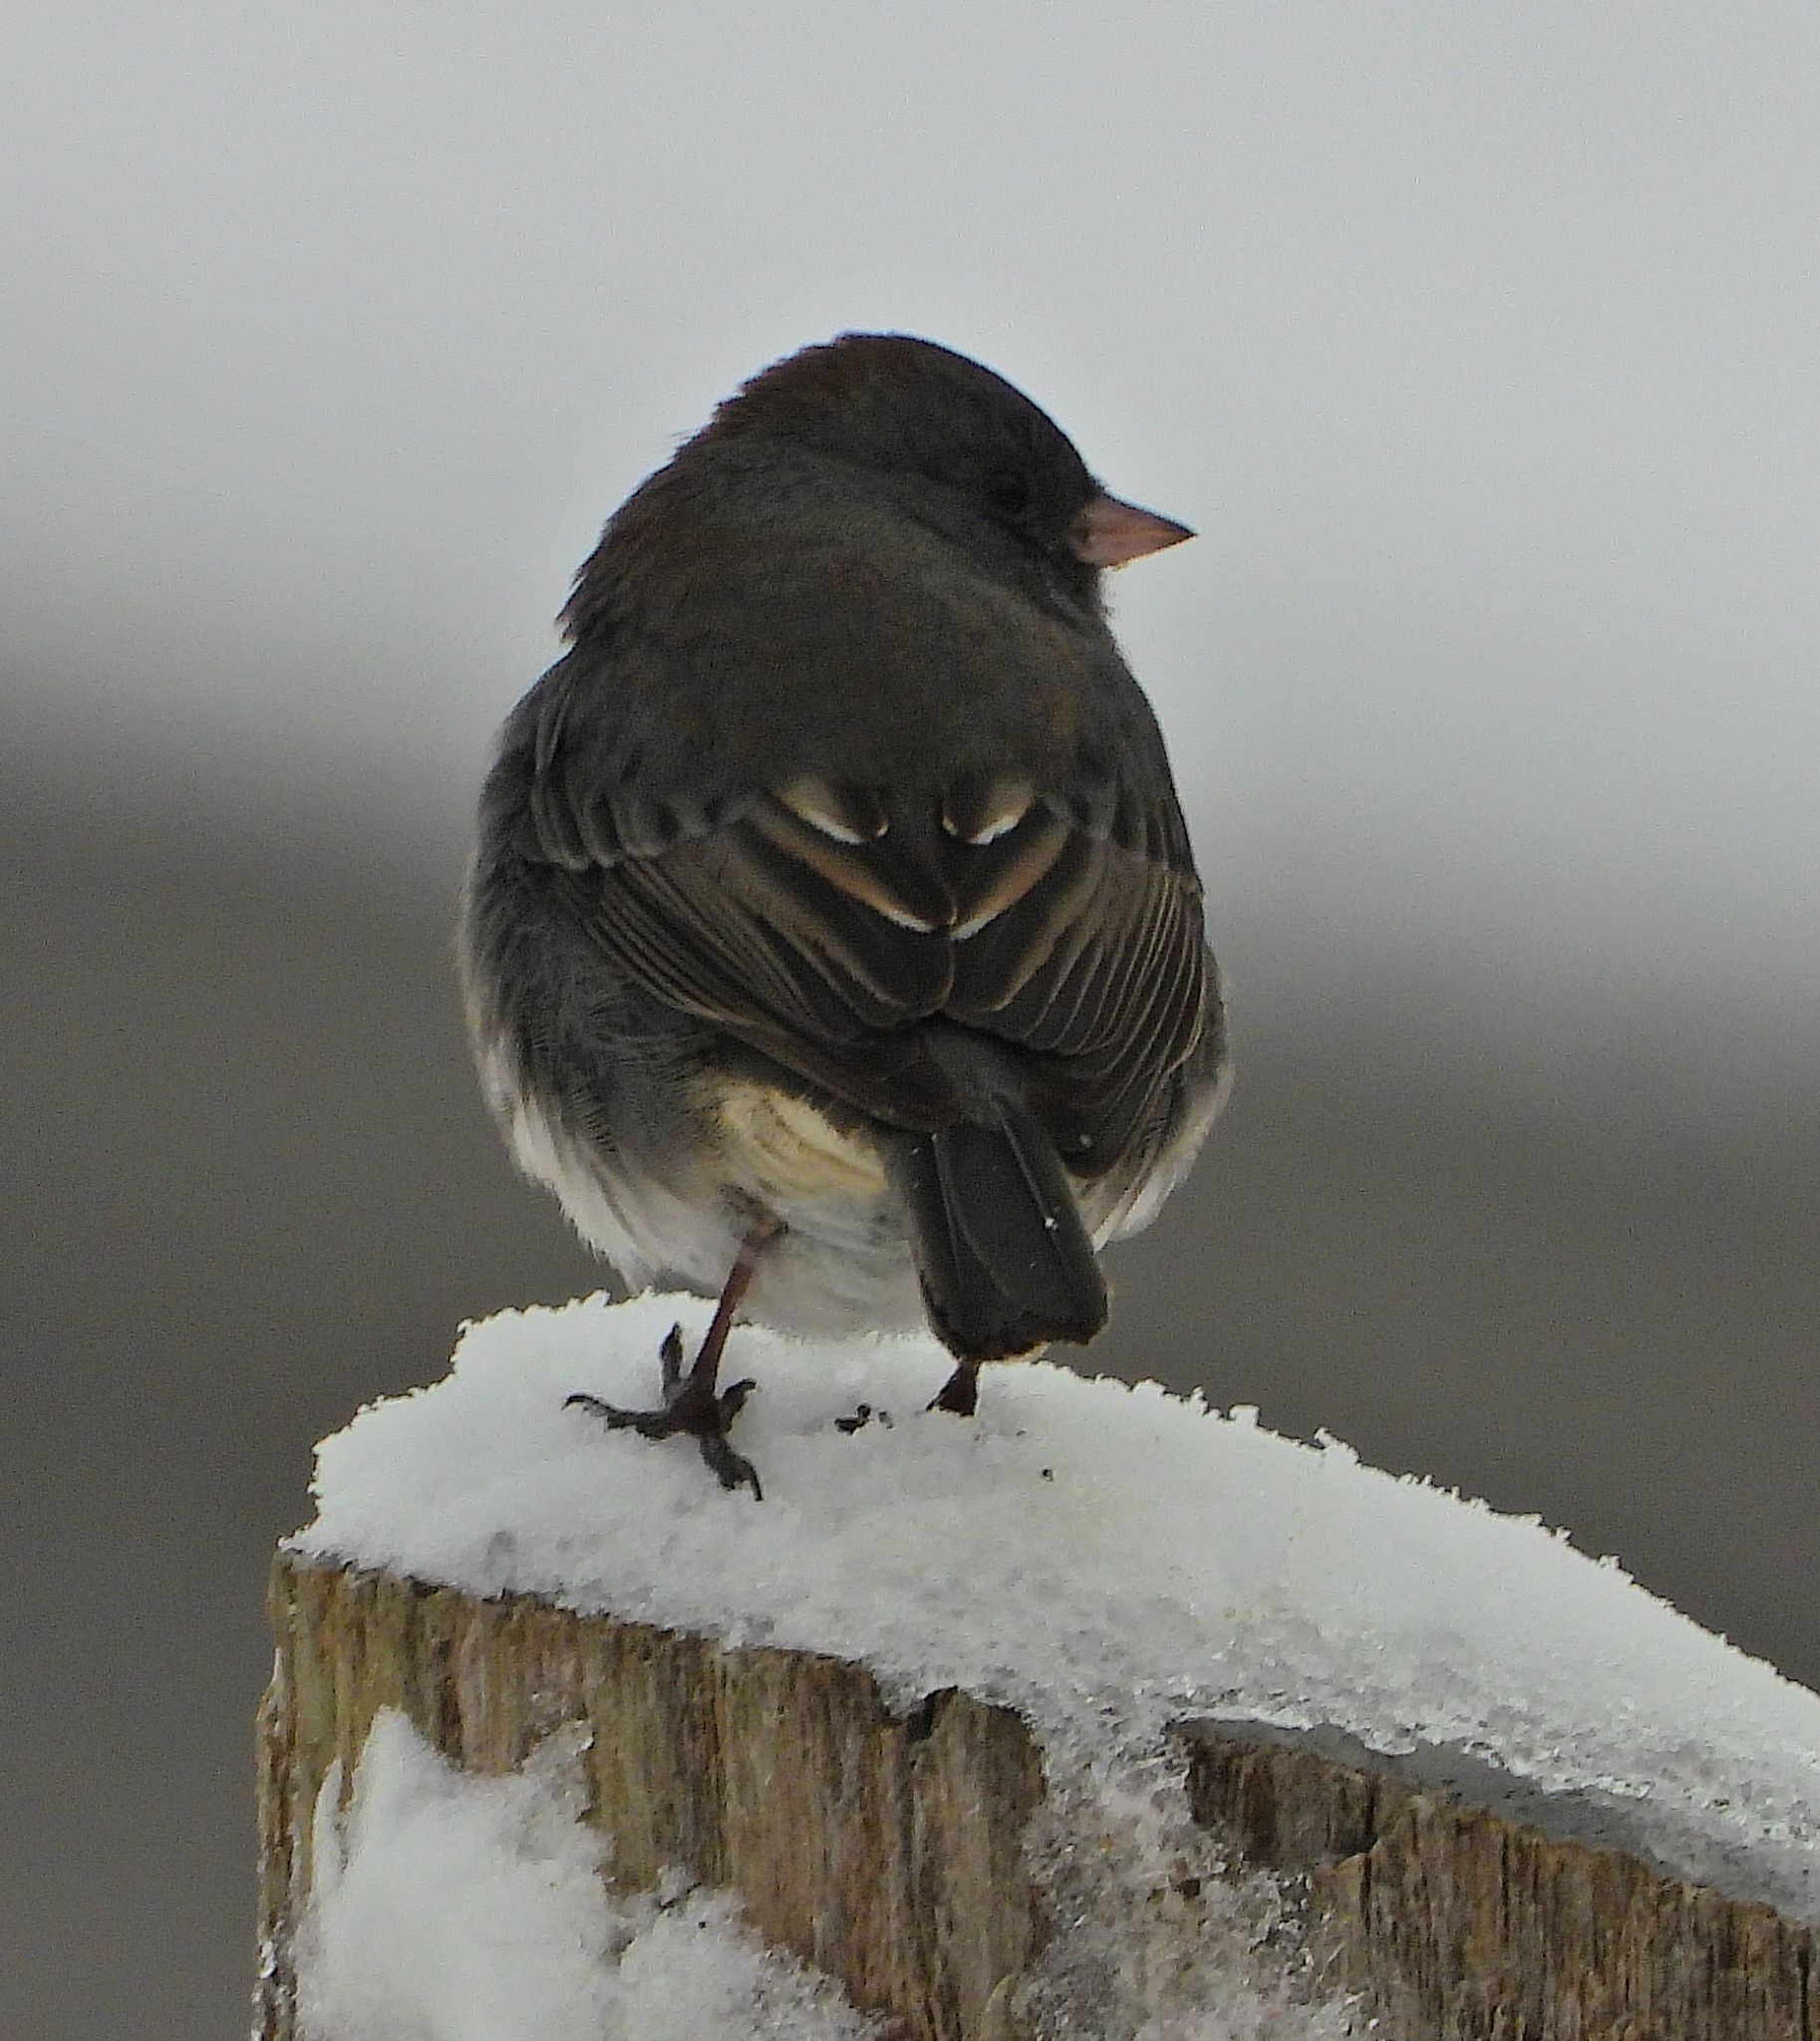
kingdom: Animalia
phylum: Chordata
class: Aves
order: Passeriformes
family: Passerellidae
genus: Junco
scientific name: Junco hyemalis
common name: Dark-eyed junco
